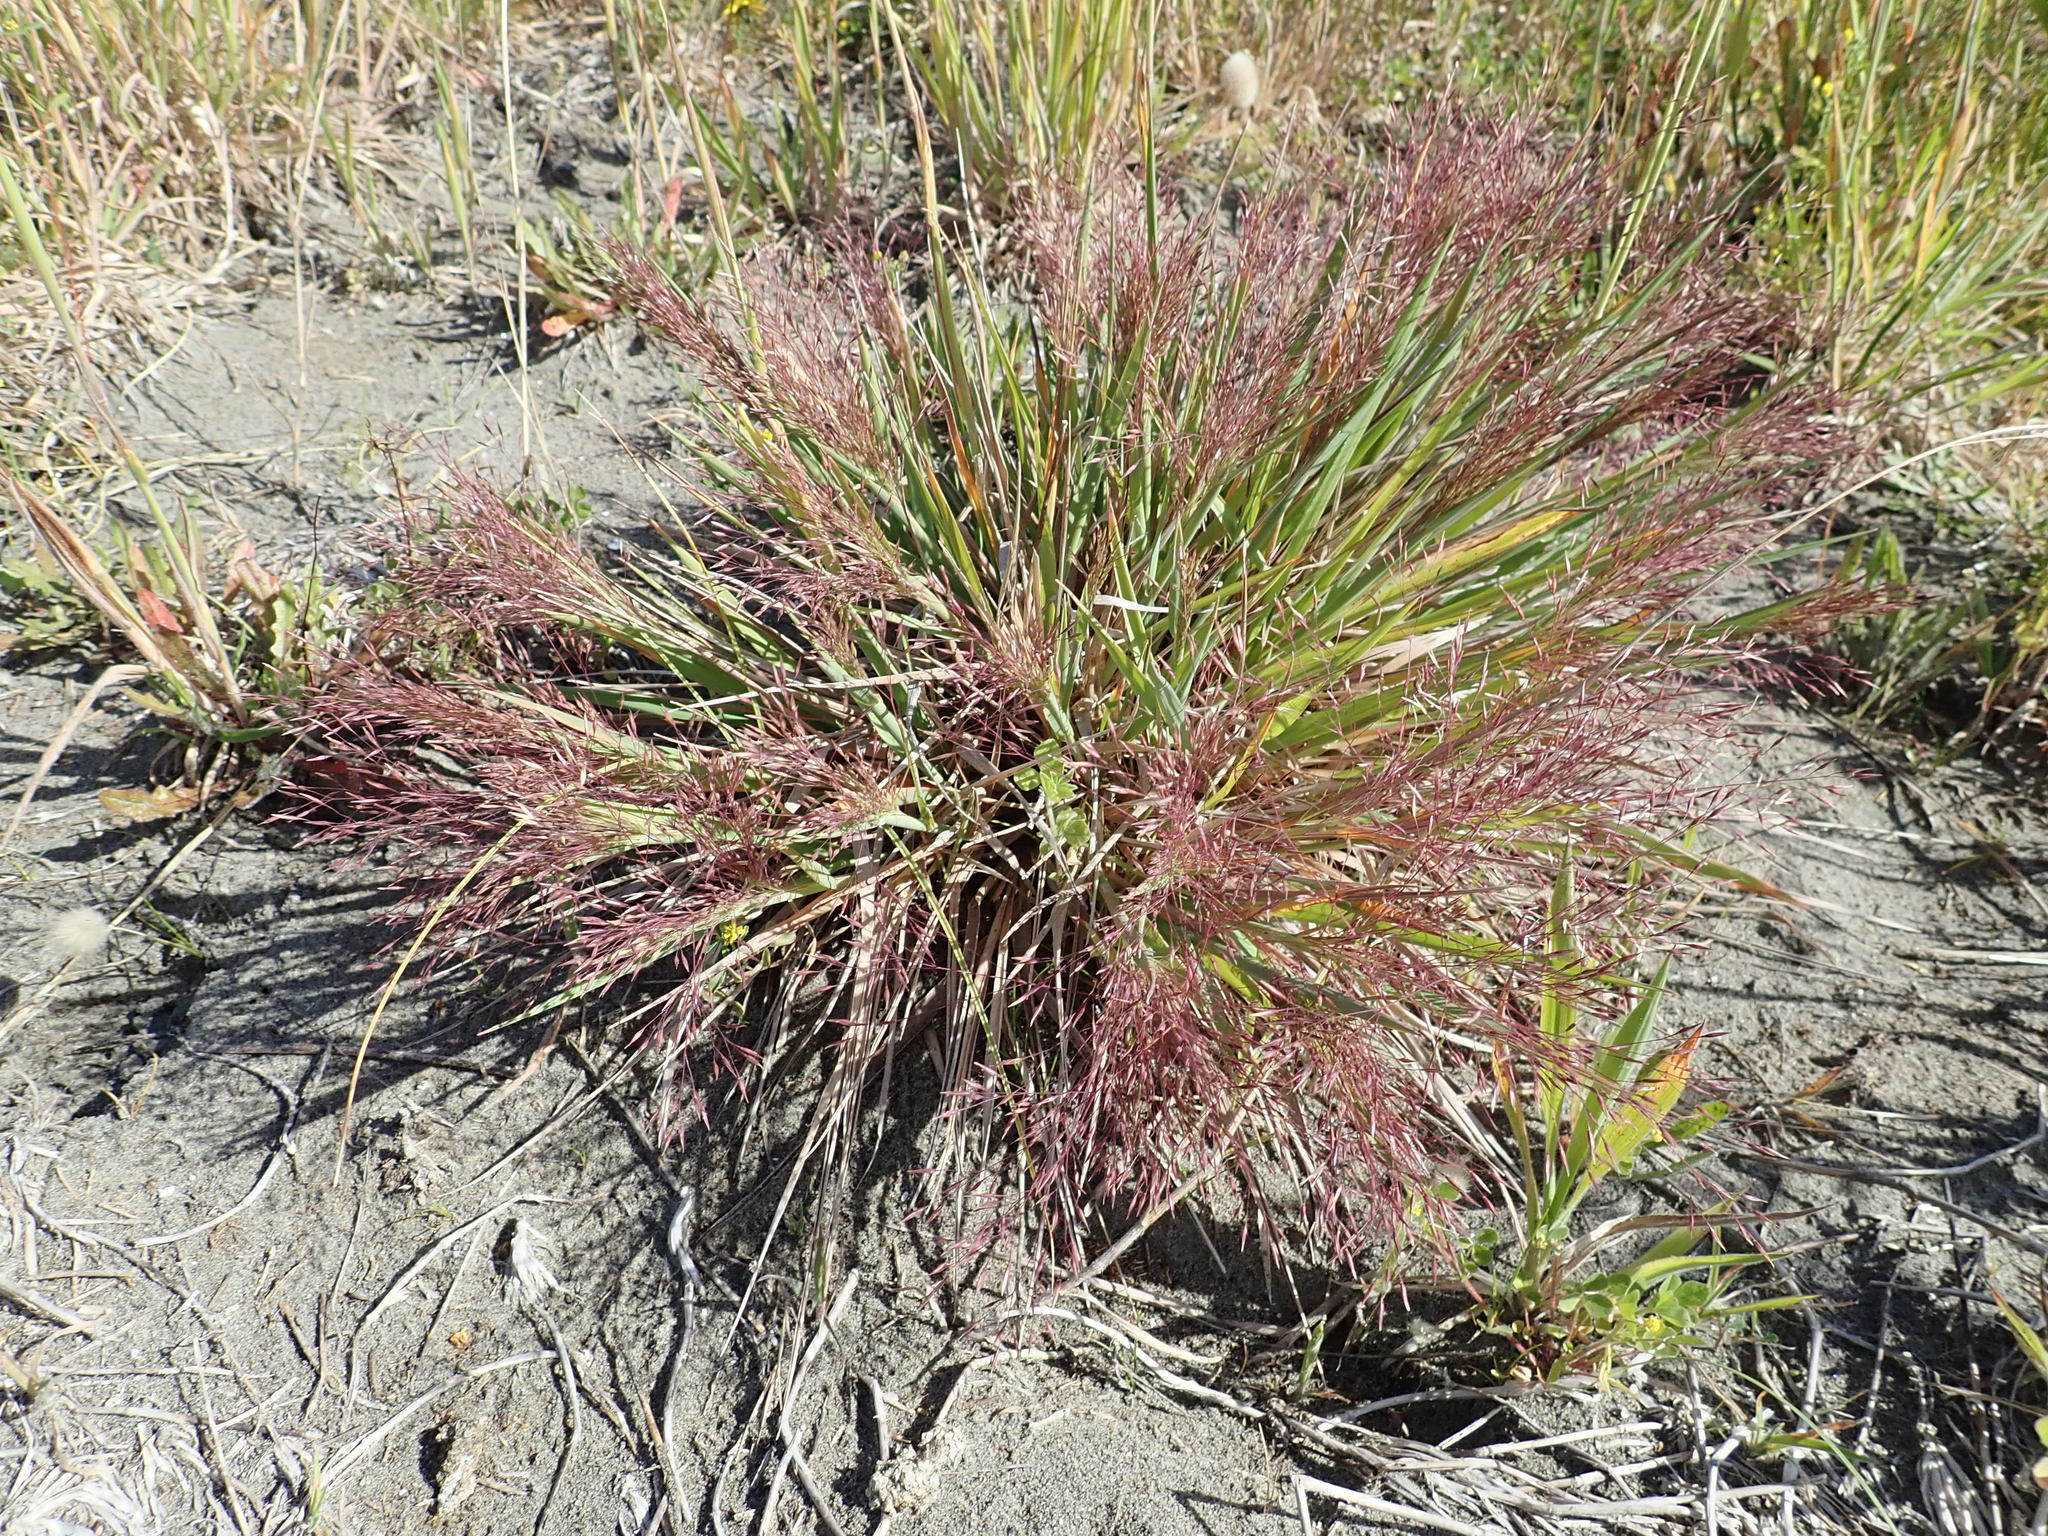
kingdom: Plantae
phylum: Tracheophyta
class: Liliopsida
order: Poales
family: Poaceae
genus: Lachnagrostis
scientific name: Lachnagrostis billardierei
